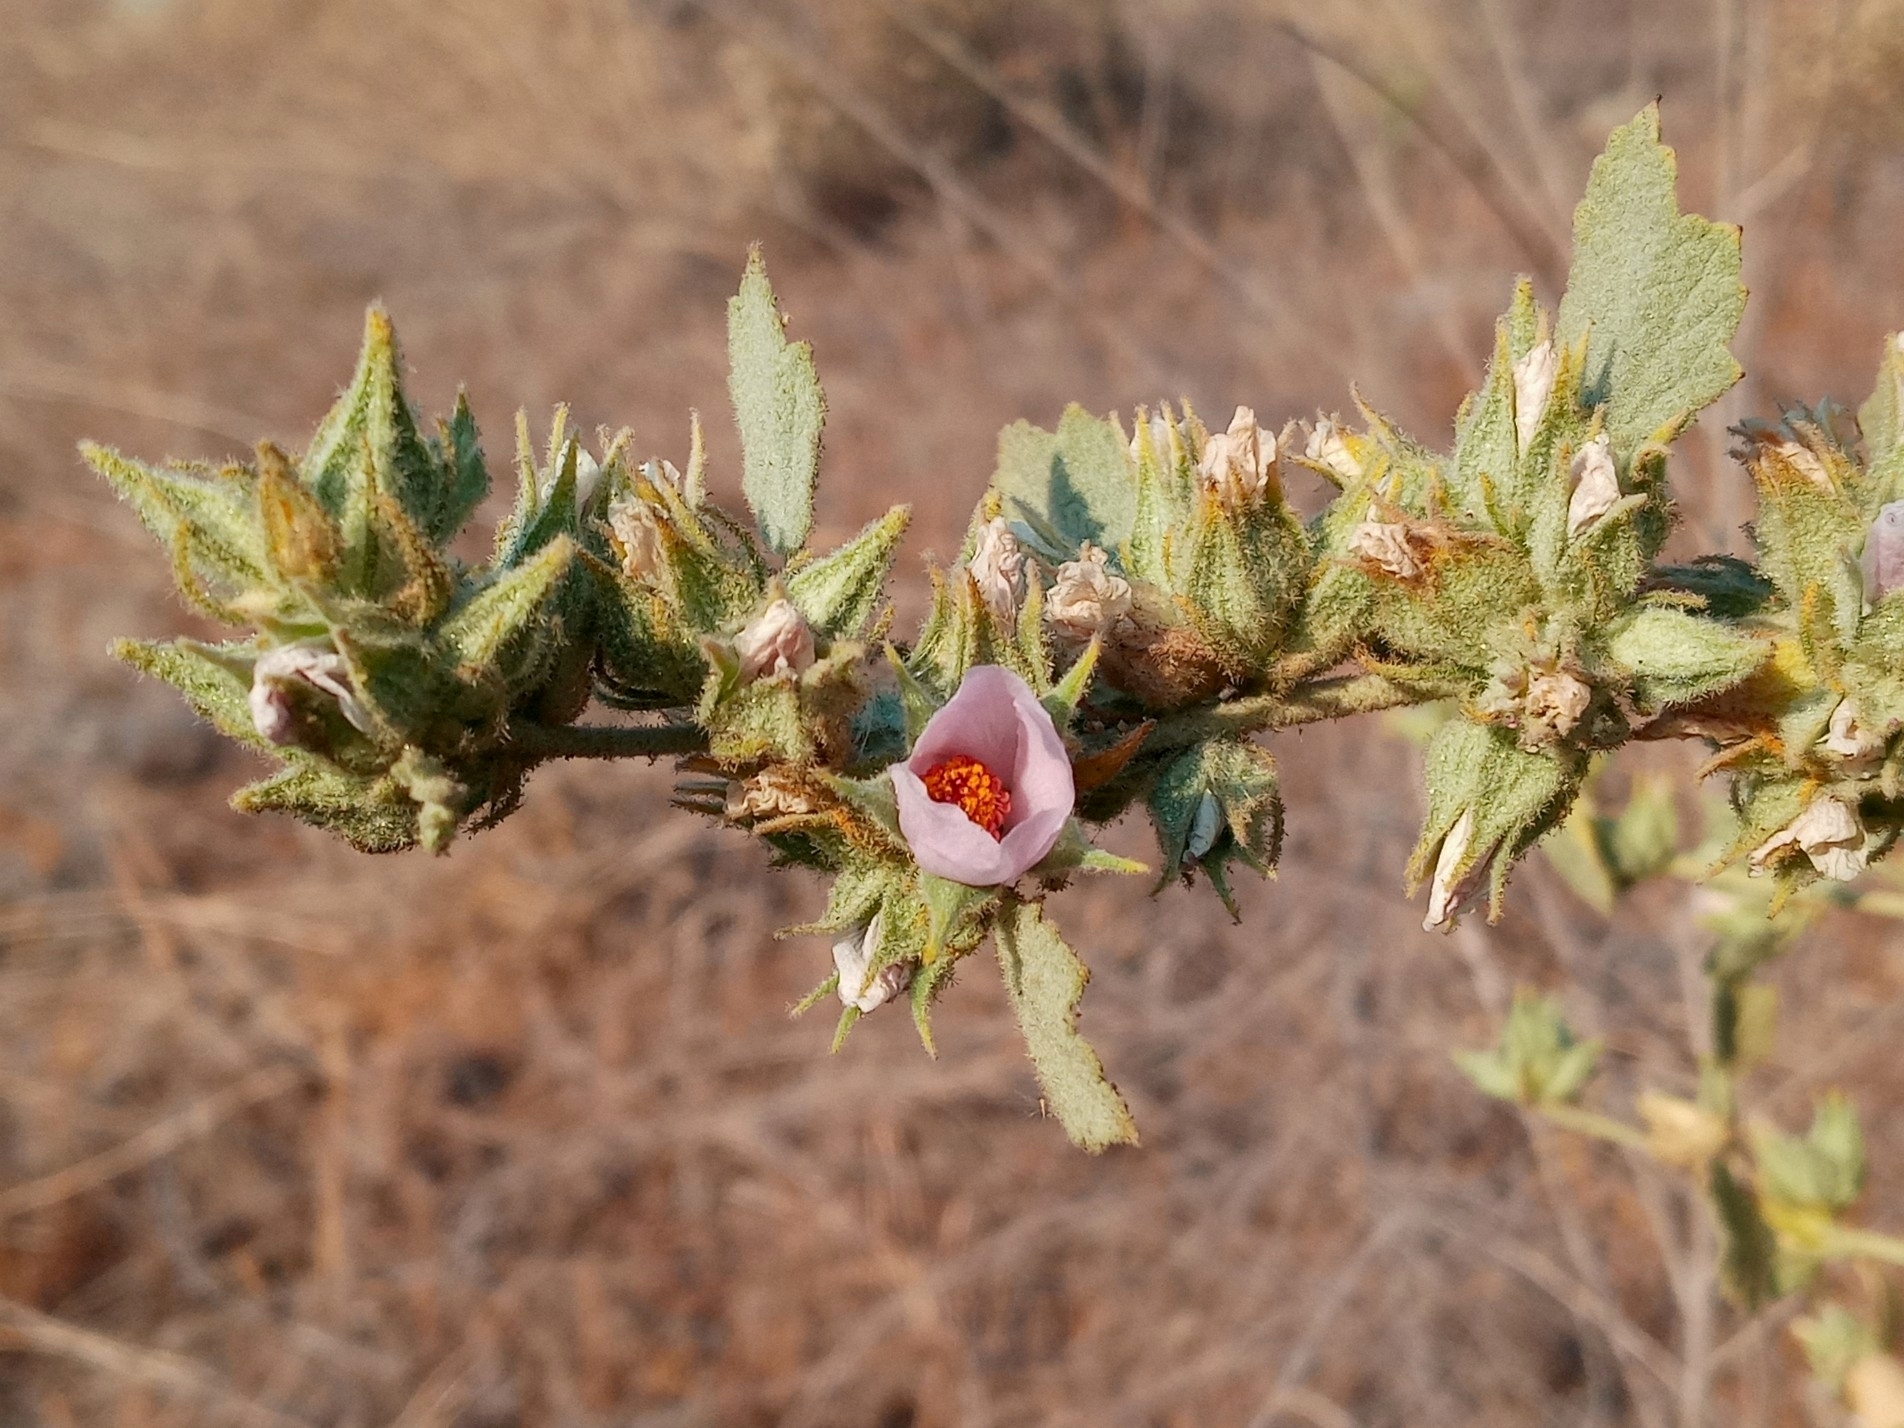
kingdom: Plantae
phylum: Tracheophyta
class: Magnoliopsida
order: Malvales
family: Malvaceae
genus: Malacothamnus
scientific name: Malacothamnus marrubioides
